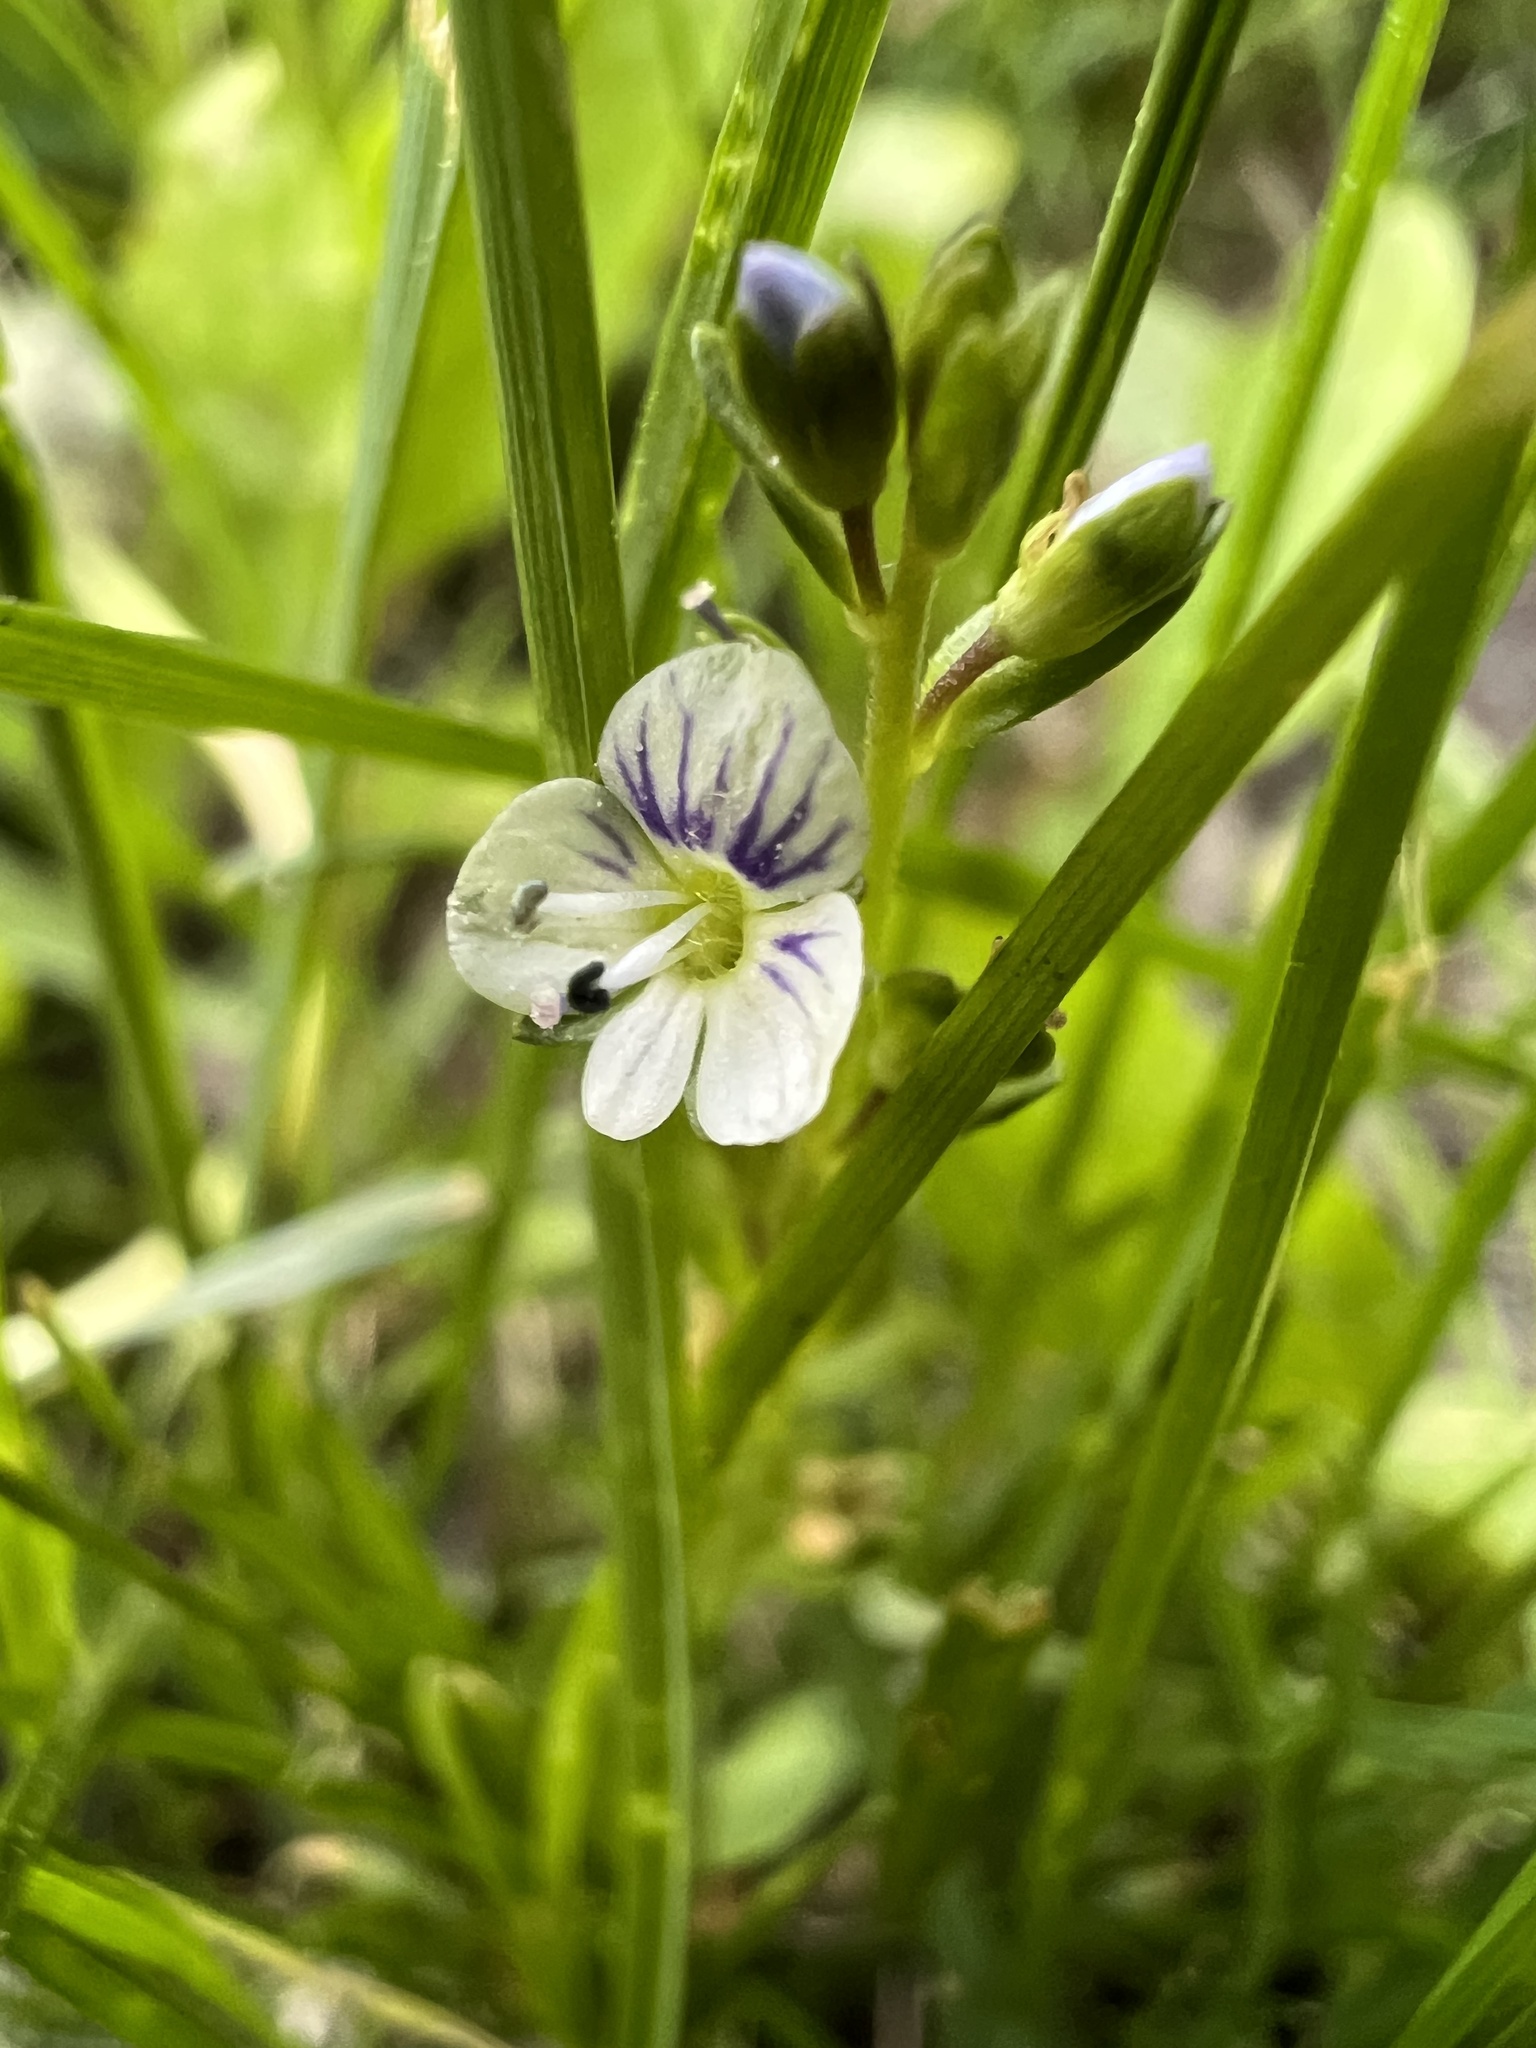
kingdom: Plantae
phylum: Tracheophyta
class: Magnoliopsida
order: Lamiales
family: Plantaginaceae
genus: Veronica
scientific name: Veronica serpyllifolia
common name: Thyme-leaved speedwell
